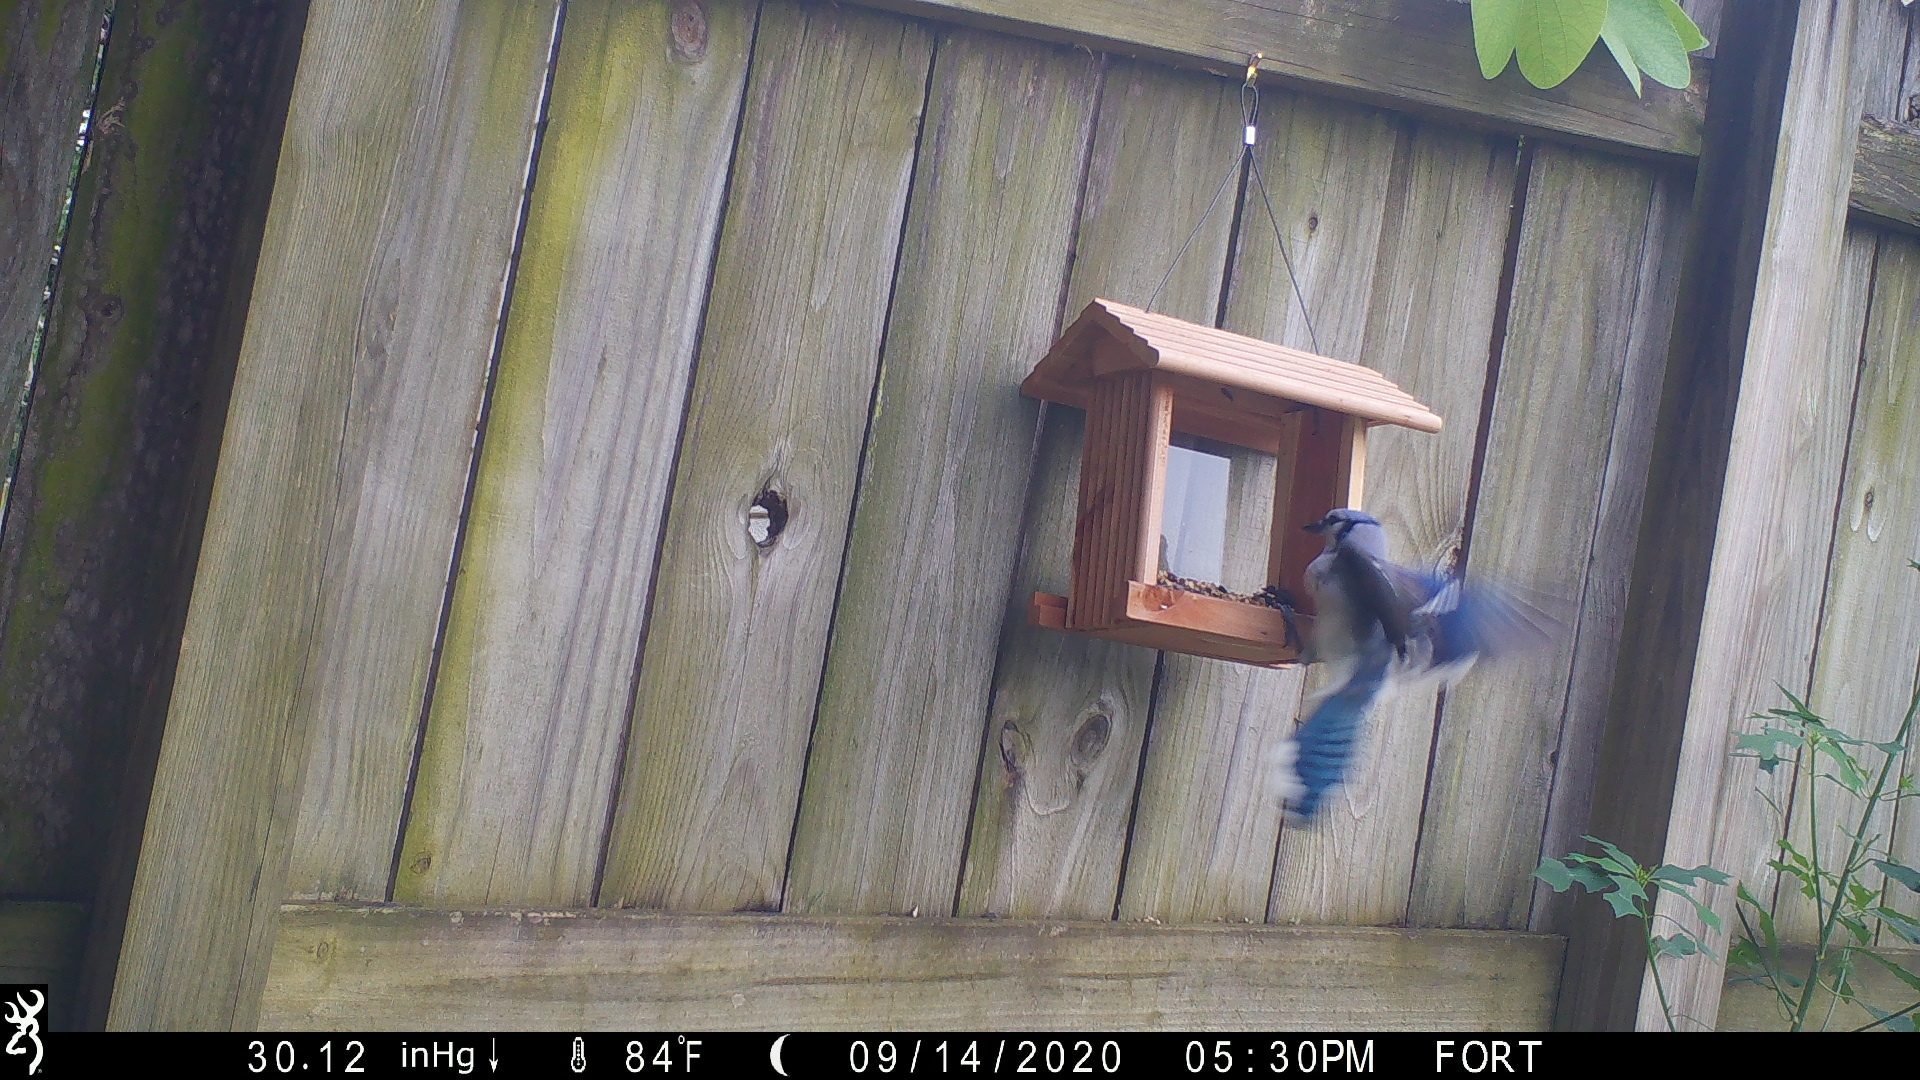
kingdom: Animalia
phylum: Chordata
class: Aves
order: Passeriformes
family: Corvidae
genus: Cyanocitta
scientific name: Cyanocitta cristata
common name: Blue jay
